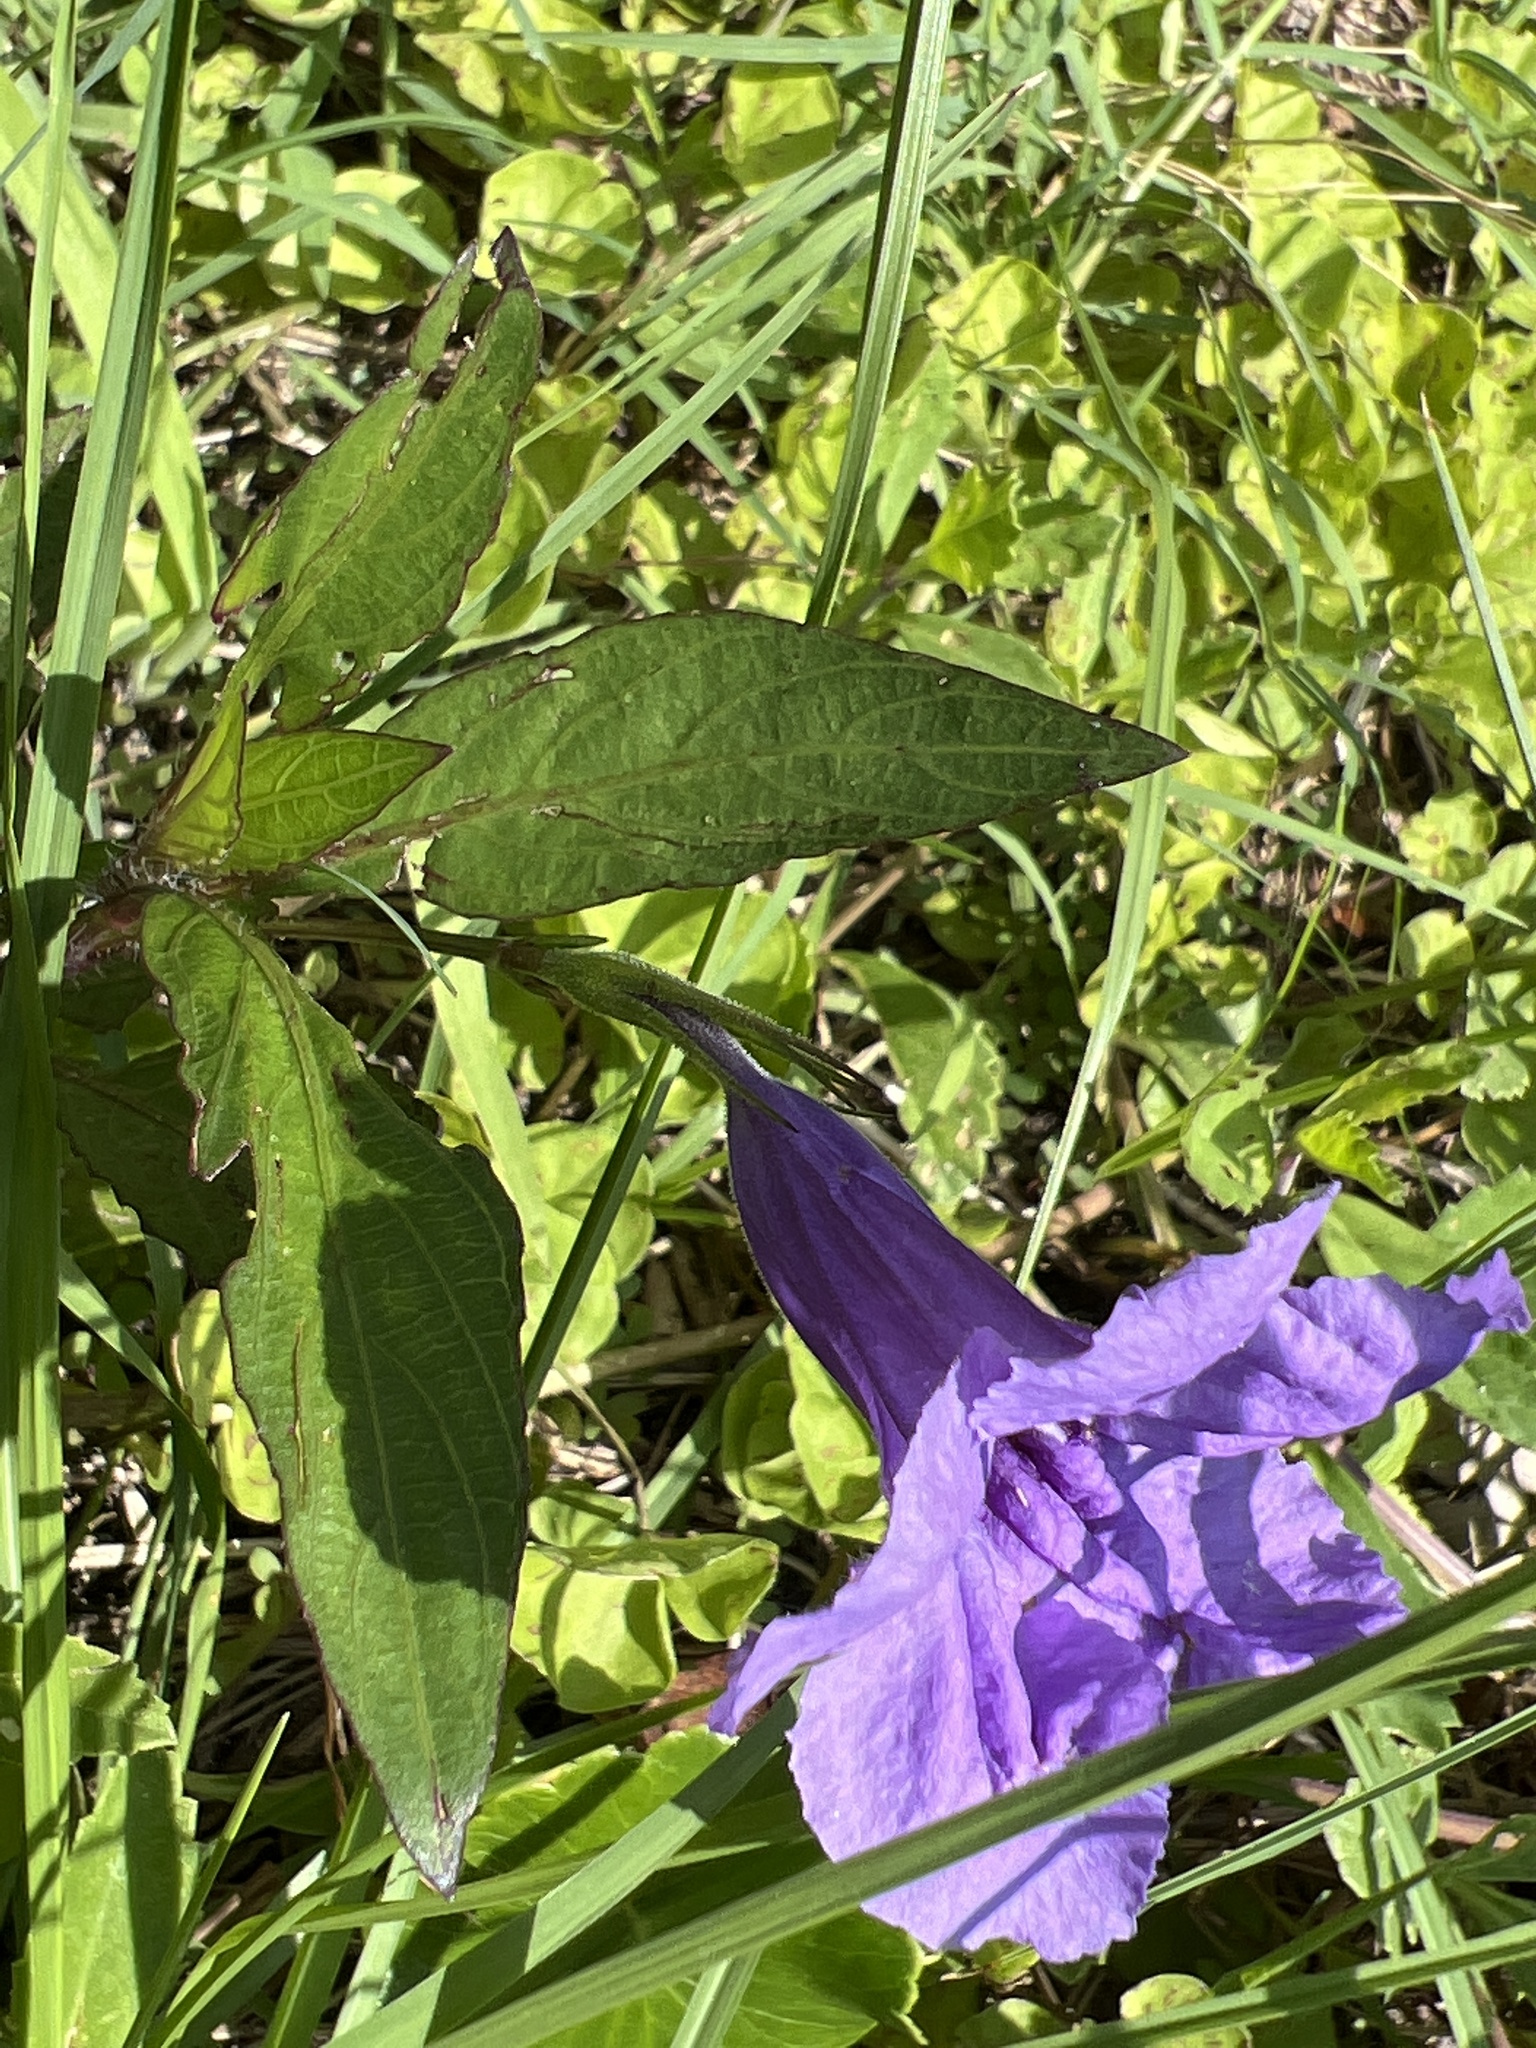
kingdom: Plantae
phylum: Tracheophyta
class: Magnoliopsida
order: Lamiales
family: Acanthaceae
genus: Ruellia
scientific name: Ruellia simplex
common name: Softseed wild petunia
